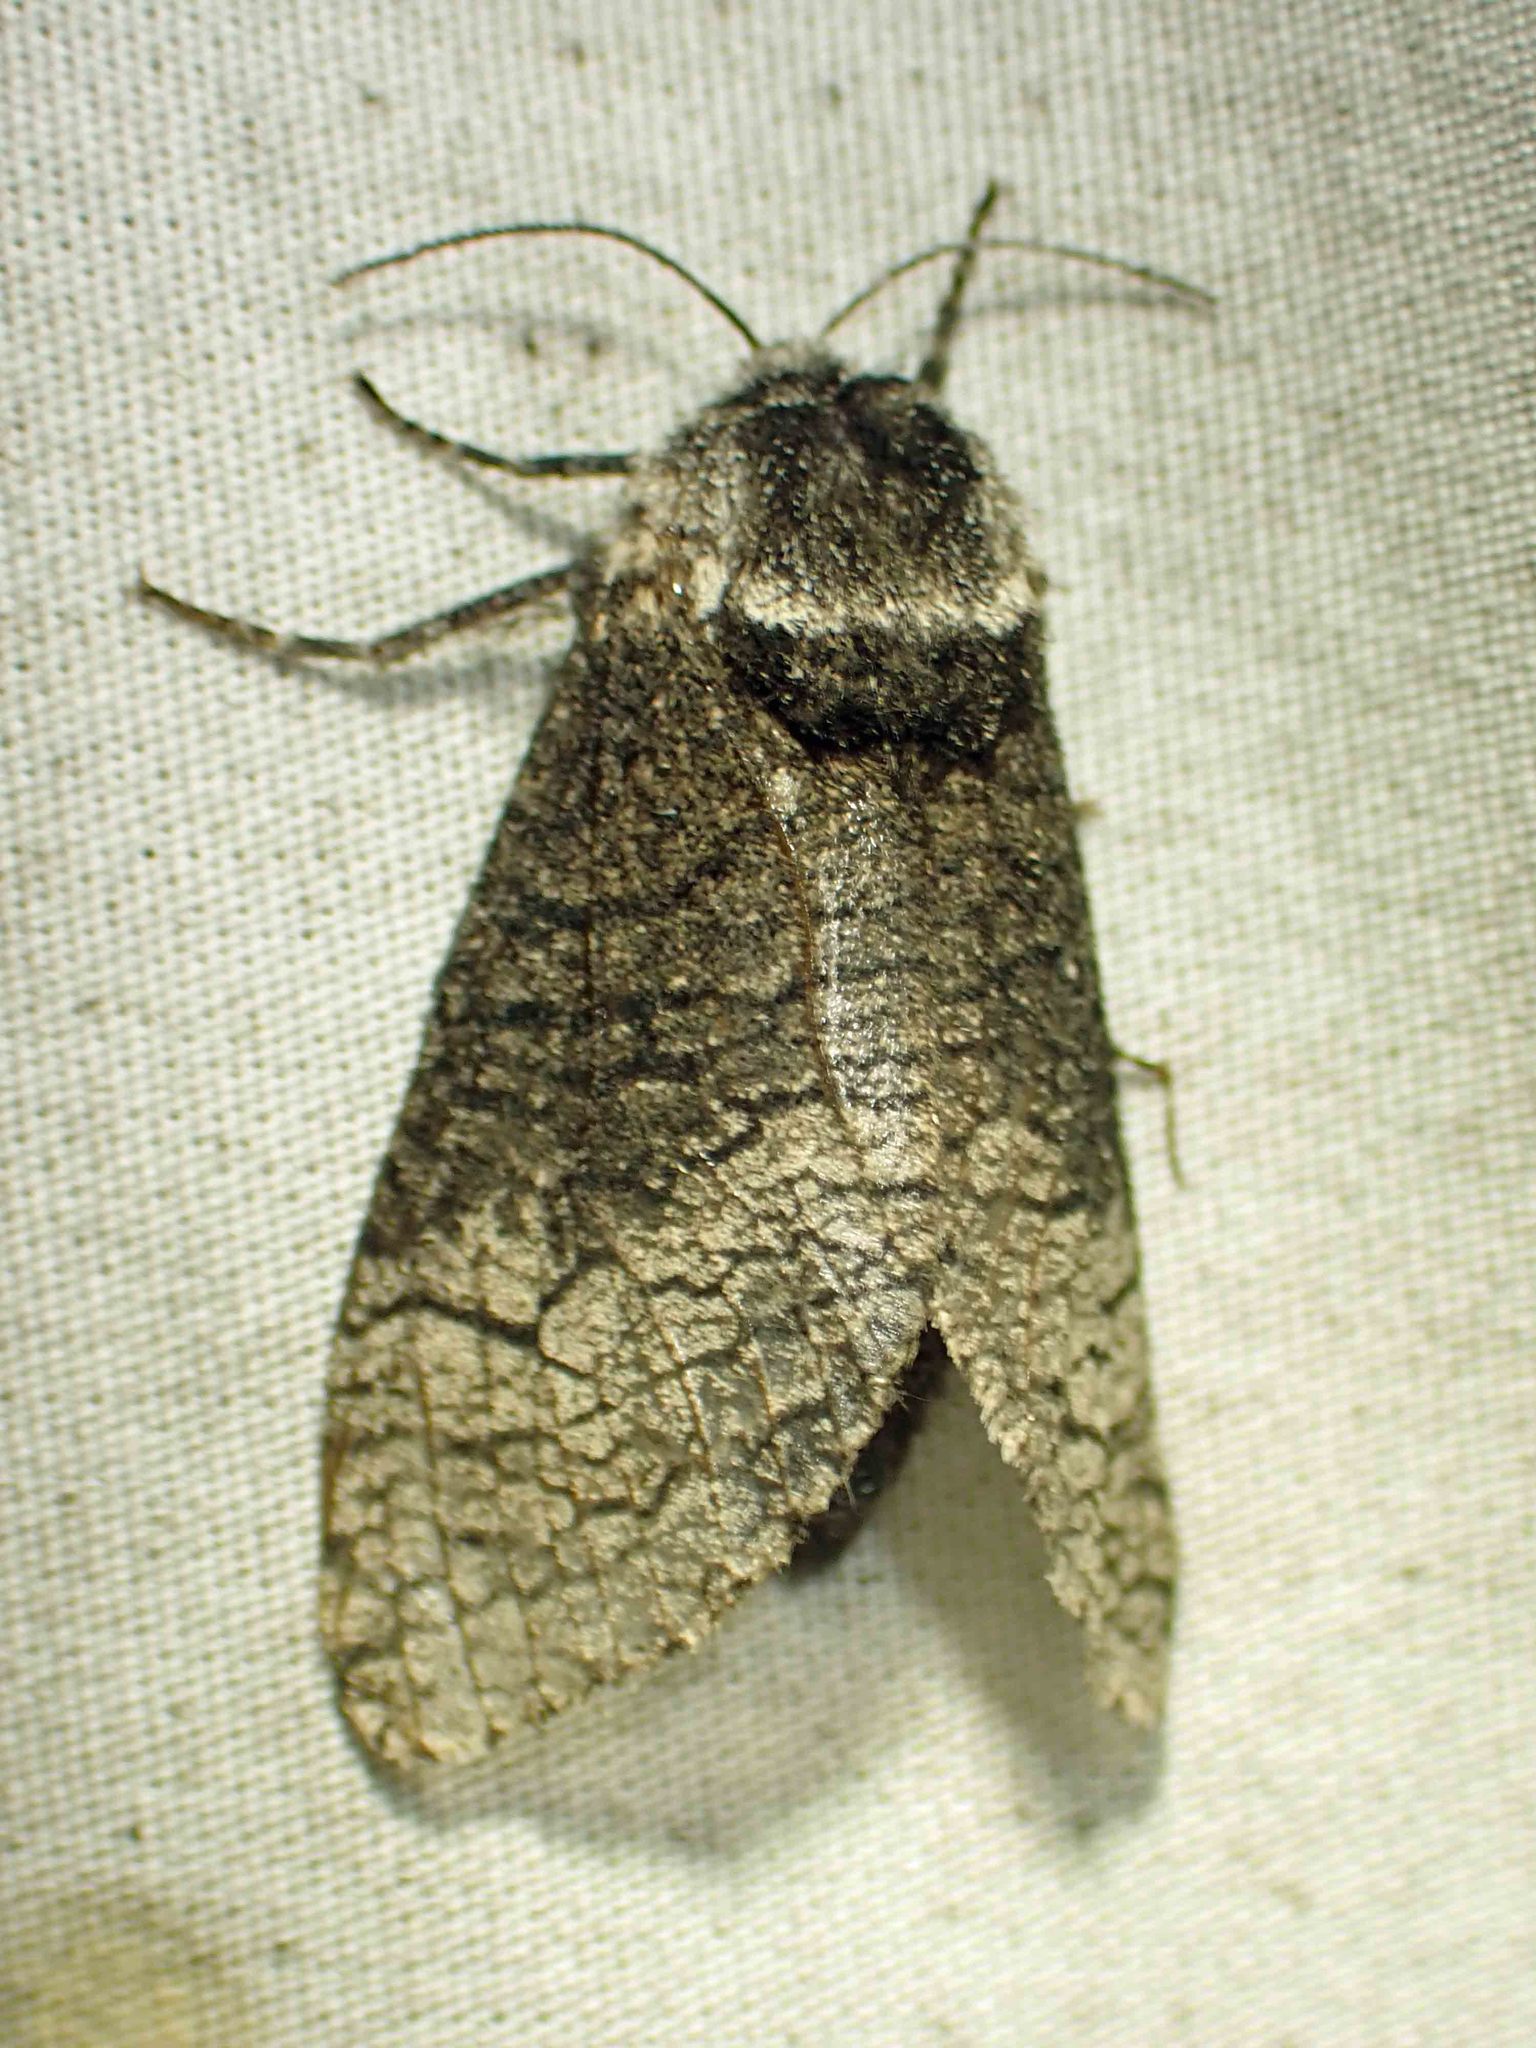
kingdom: Animalia
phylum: Arthropoda
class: Insecta
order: Lepidoptera
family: Cossidae
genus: Acossus
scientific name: Acossus centerensis
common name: Poplar carpenterworm moth
